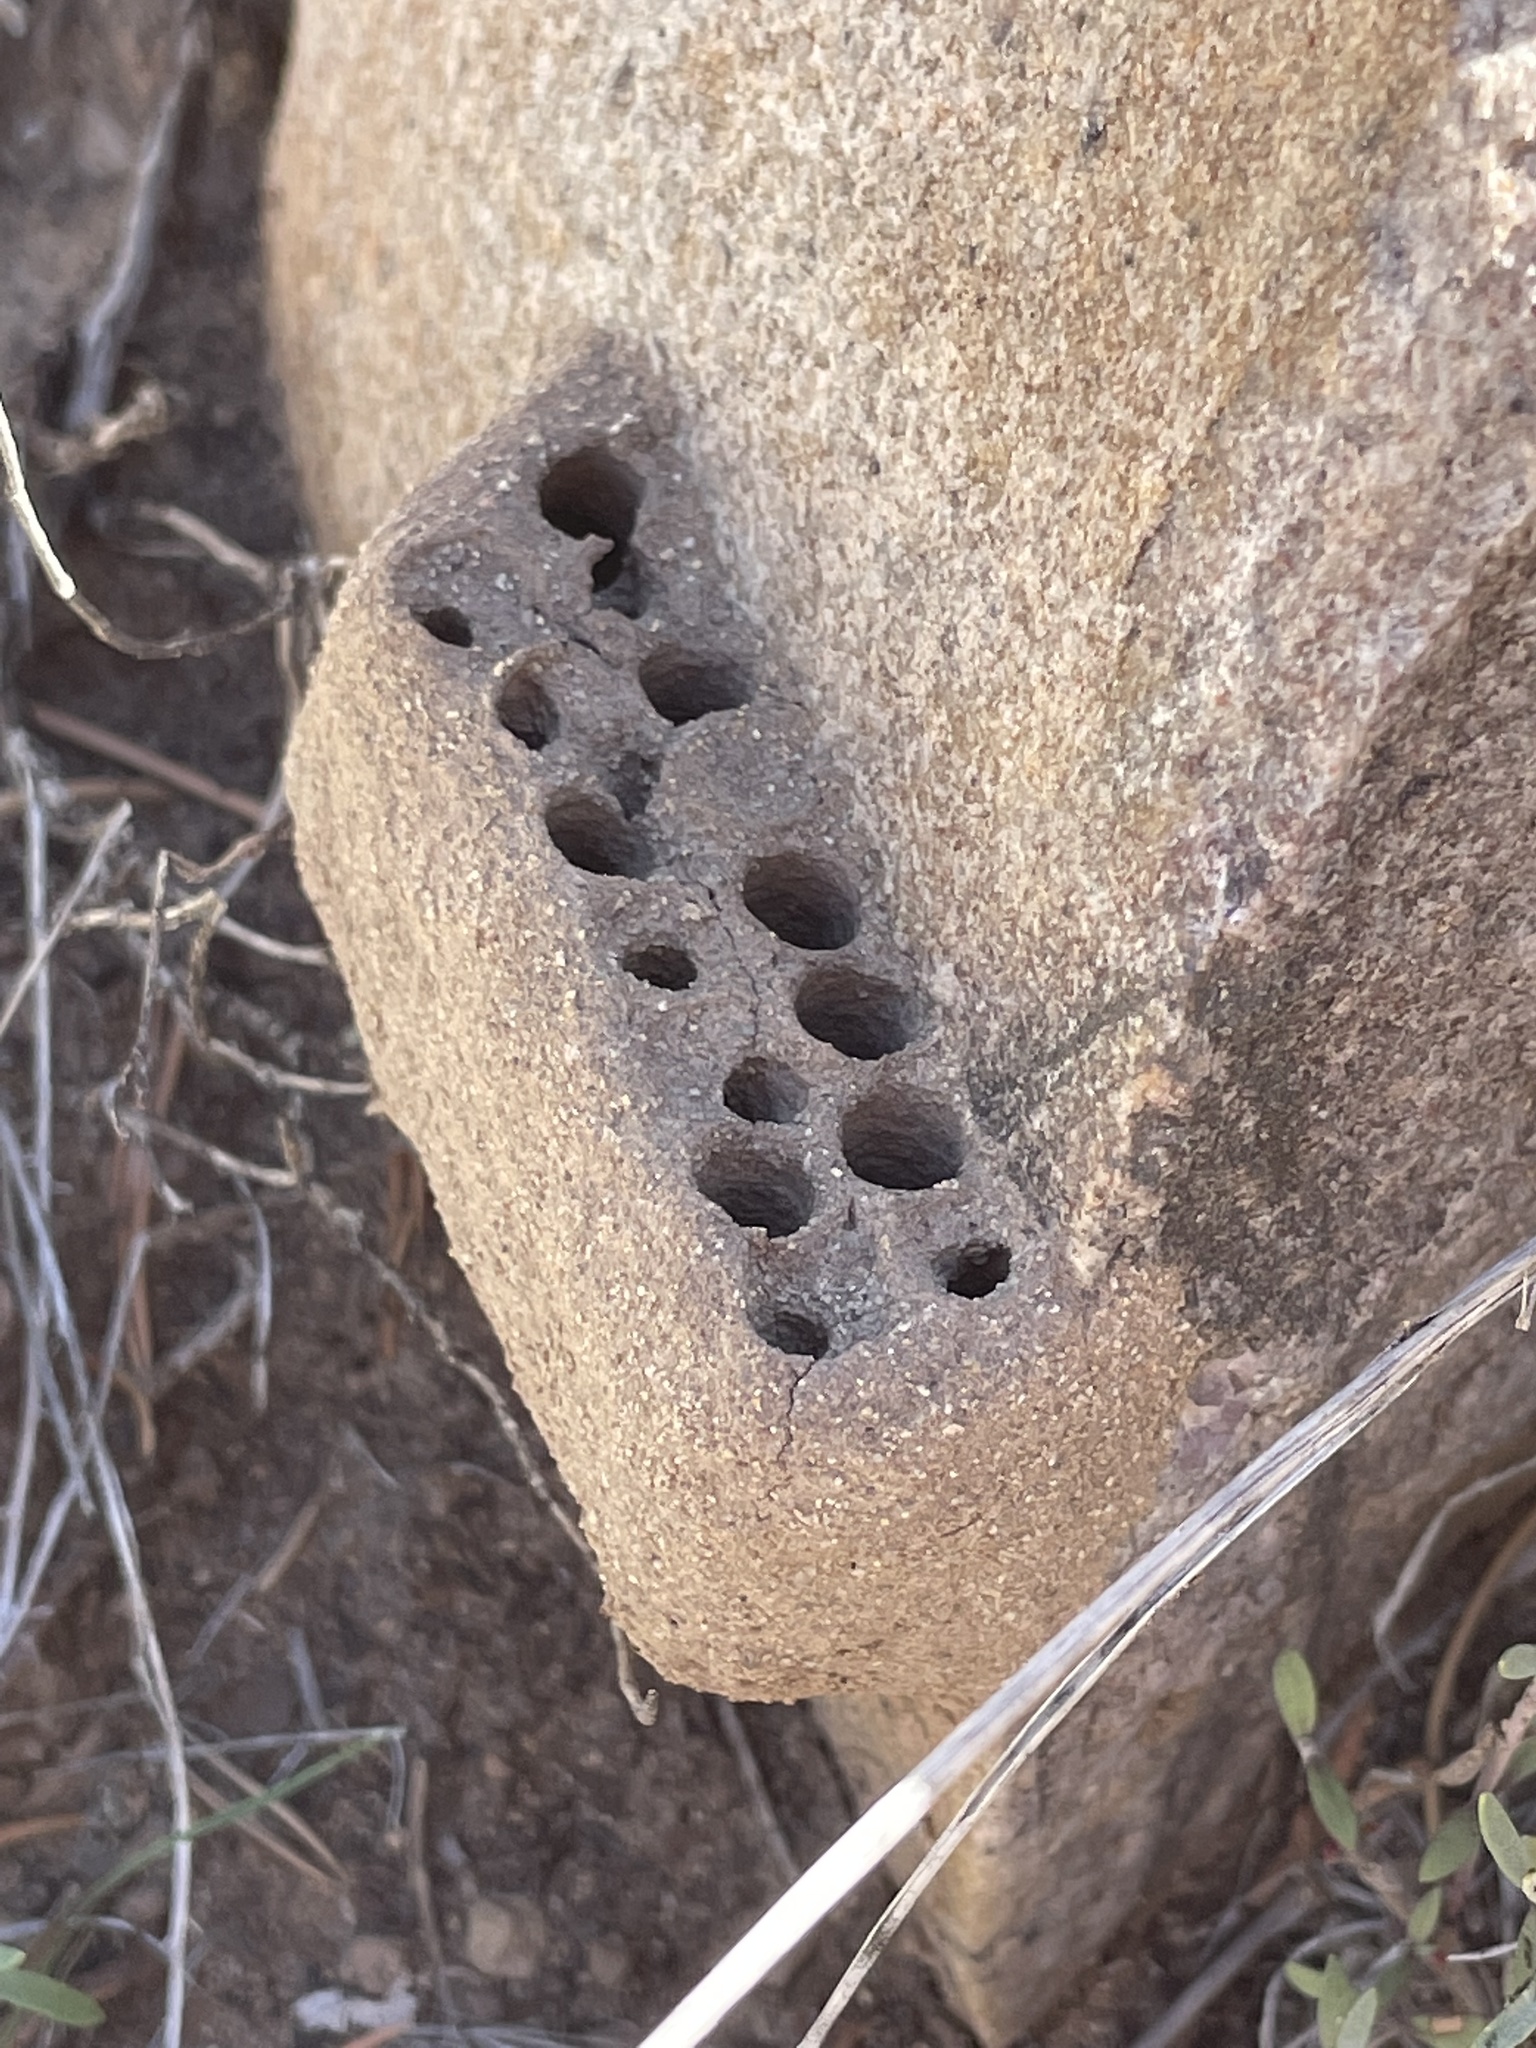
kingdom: Animalia
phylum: Arthropoda
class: Insecta
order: Hymenoptera
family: Masaridae
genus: Pseudomasaris
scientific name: Pseudomasaris
